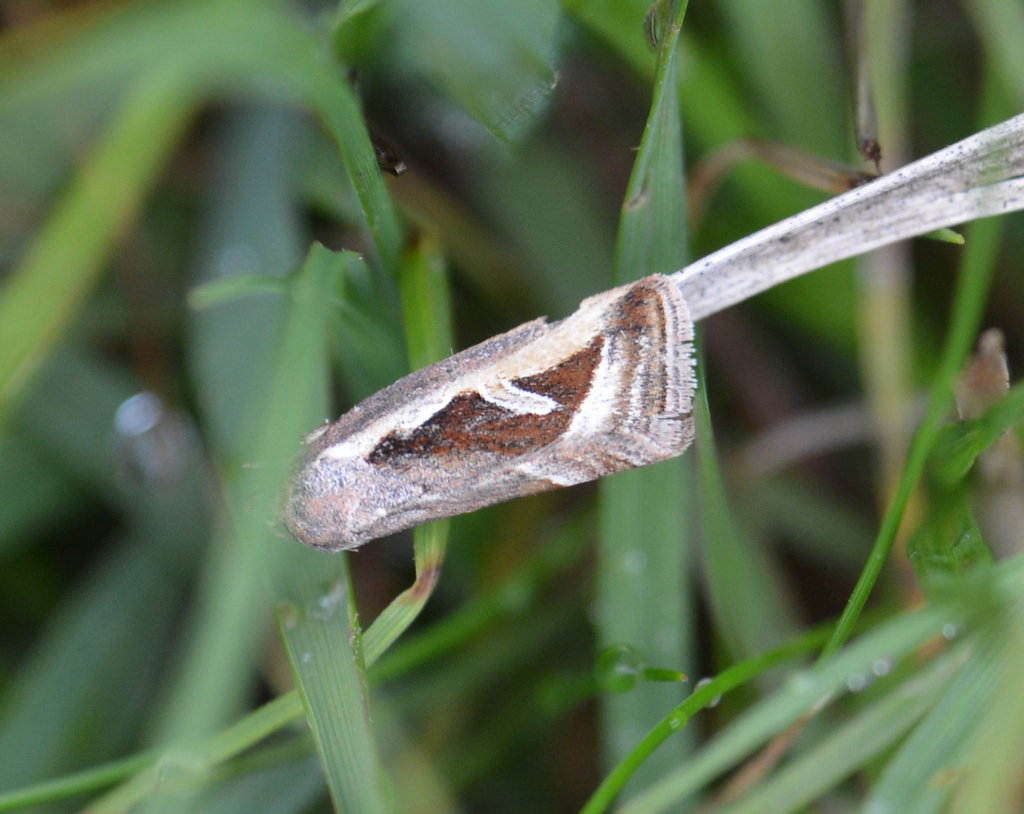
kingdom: Animalia
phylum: Arthropoda
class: Insecta
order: Lepidoptera
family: Noctuidae
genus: Deltote
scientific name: Deltote uncula
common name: Silver hook
